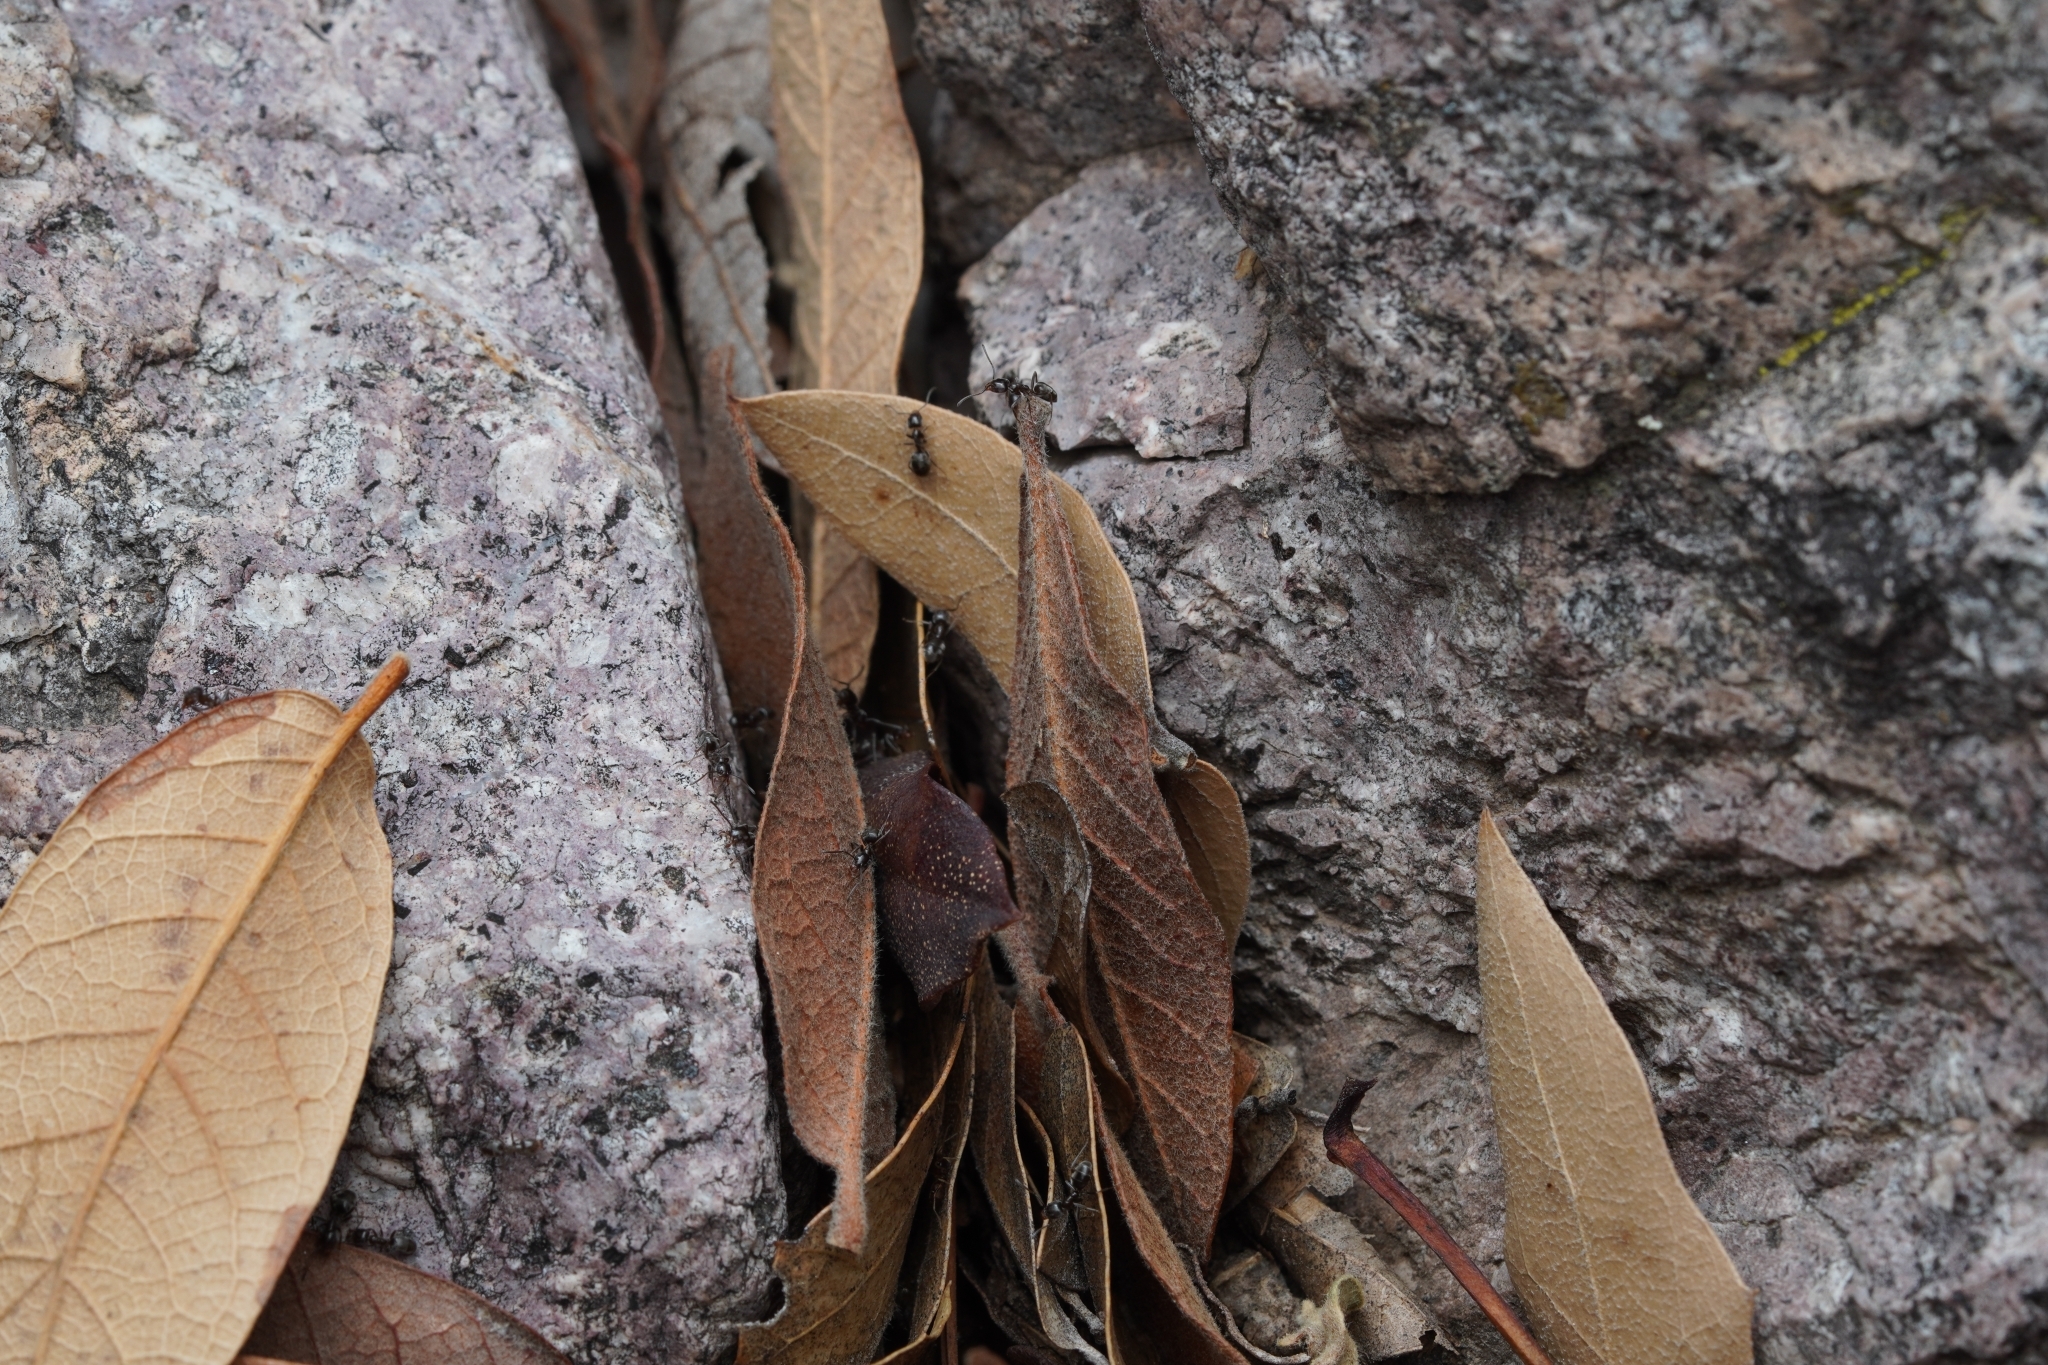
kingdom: Animalia
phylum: Arthropoda
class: Insecta
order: Hymenoptera
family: Formicidae
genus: Liometopum
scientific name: Liometopum luctuosum
